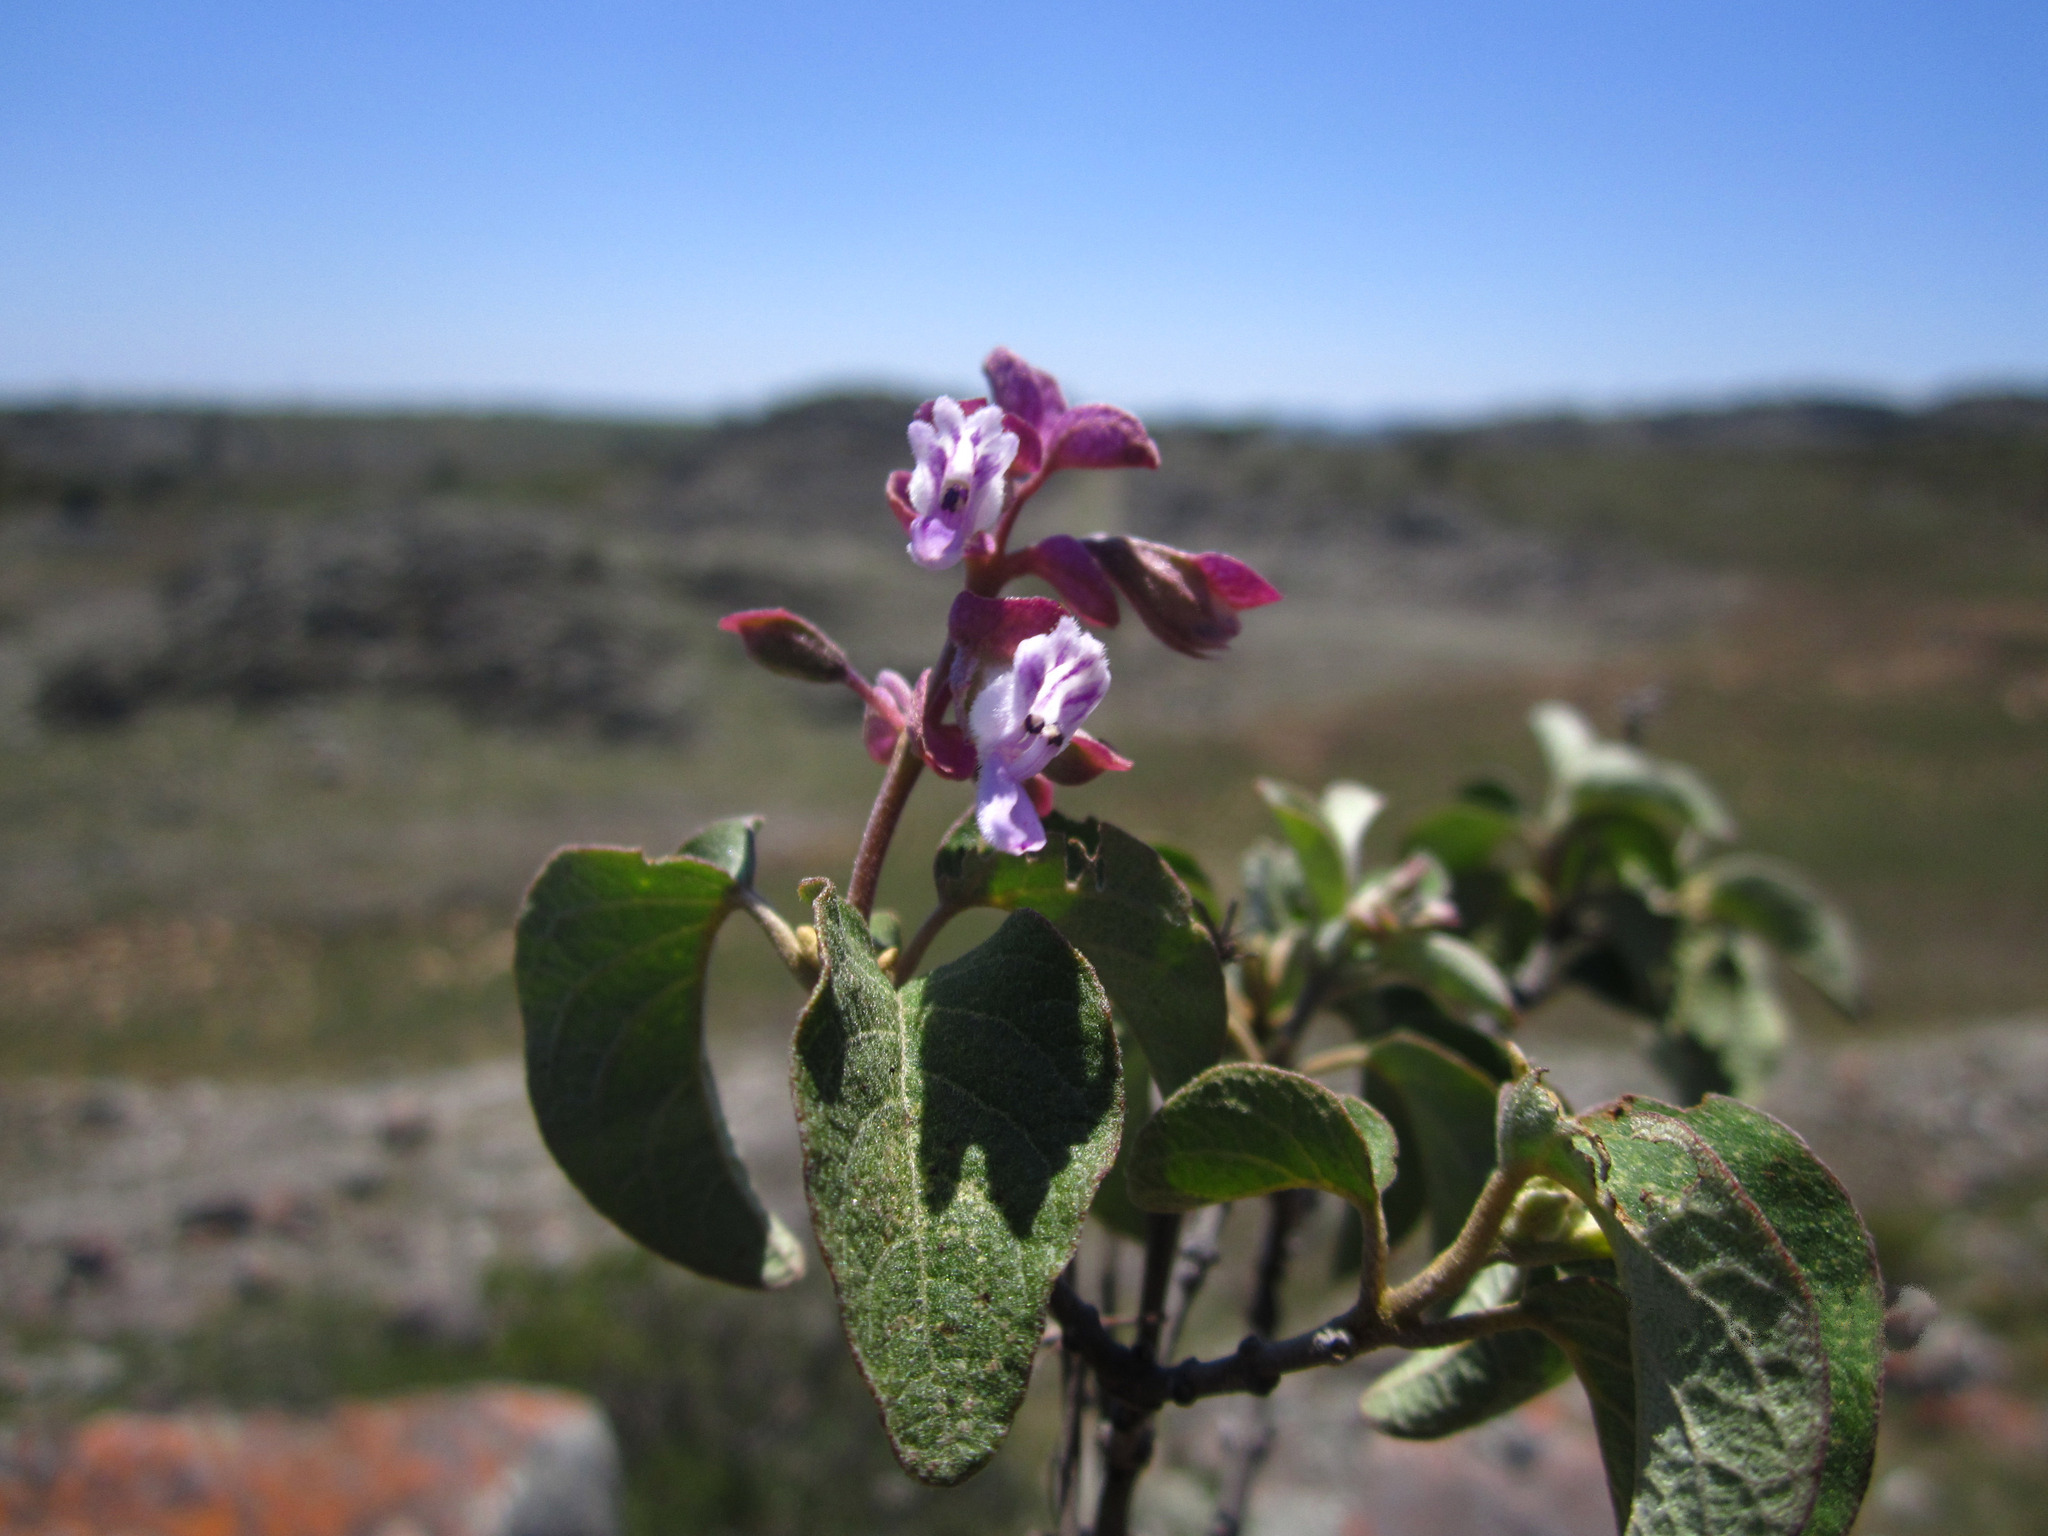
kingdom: Plantae
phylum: Tracheophyta
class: Magnoliopsida
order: Lamiales
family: Lamiaceae
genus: Syncolostemon
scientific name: Syncolostemon madagascariensis
